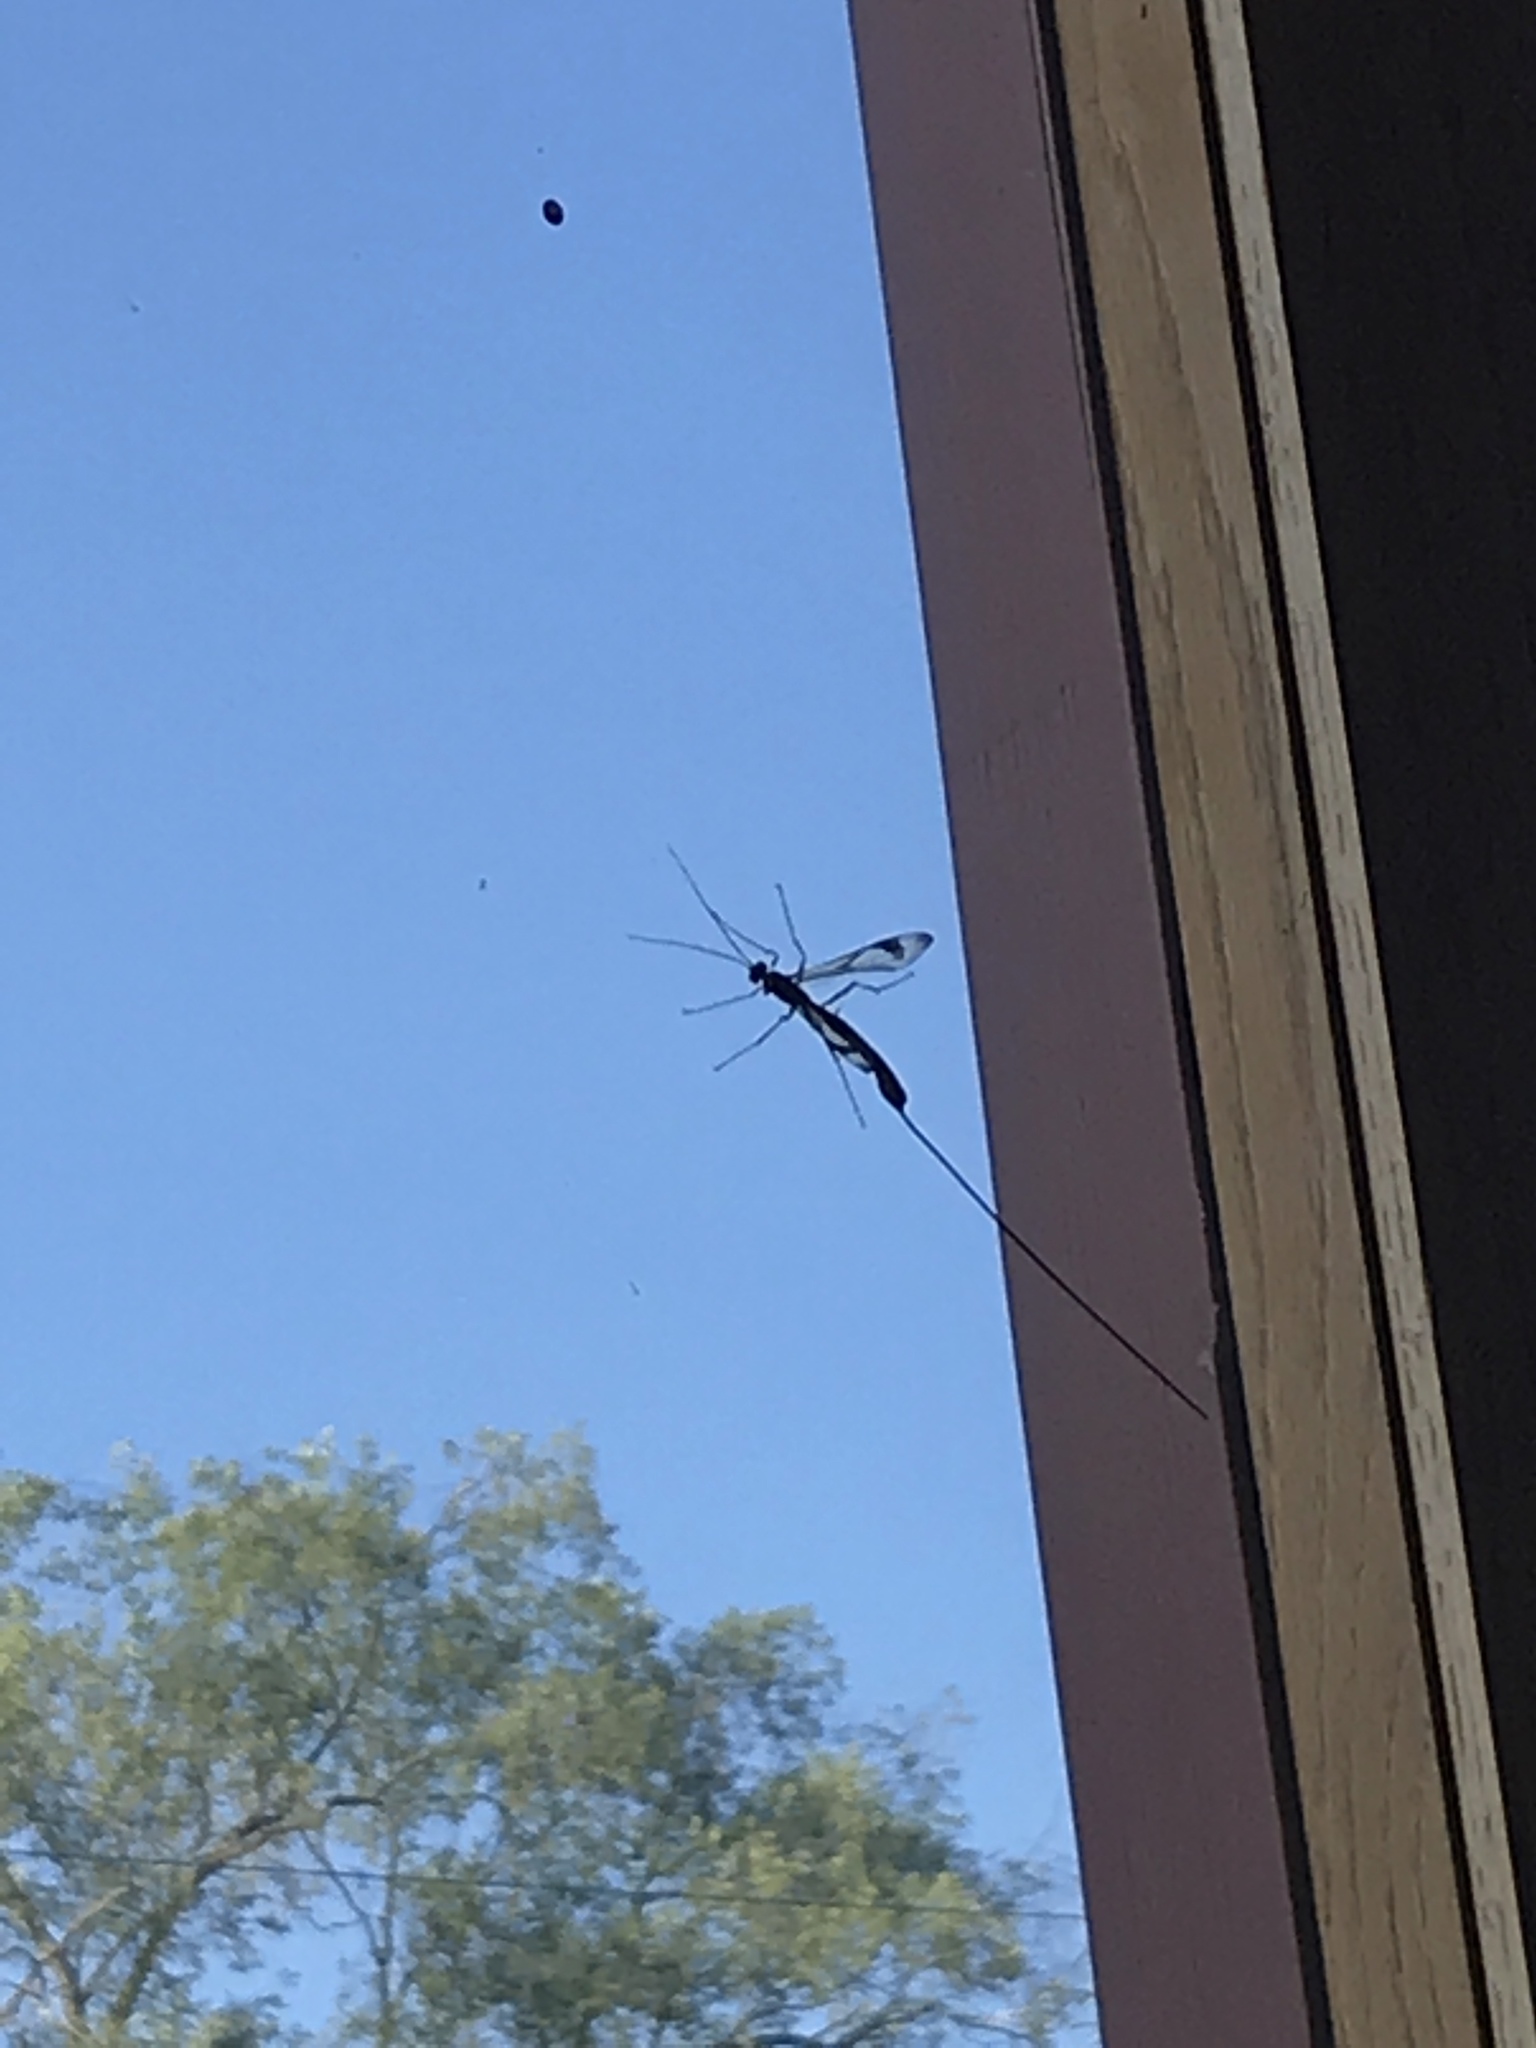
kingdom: Animalia
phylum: Arthropoda
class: Insecta
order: Hymenoptera
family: Ichneumonidae
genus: Megarhyssa
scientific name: Megarhyssa macrura
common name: Long-tailed giant ichneumonid wasp
